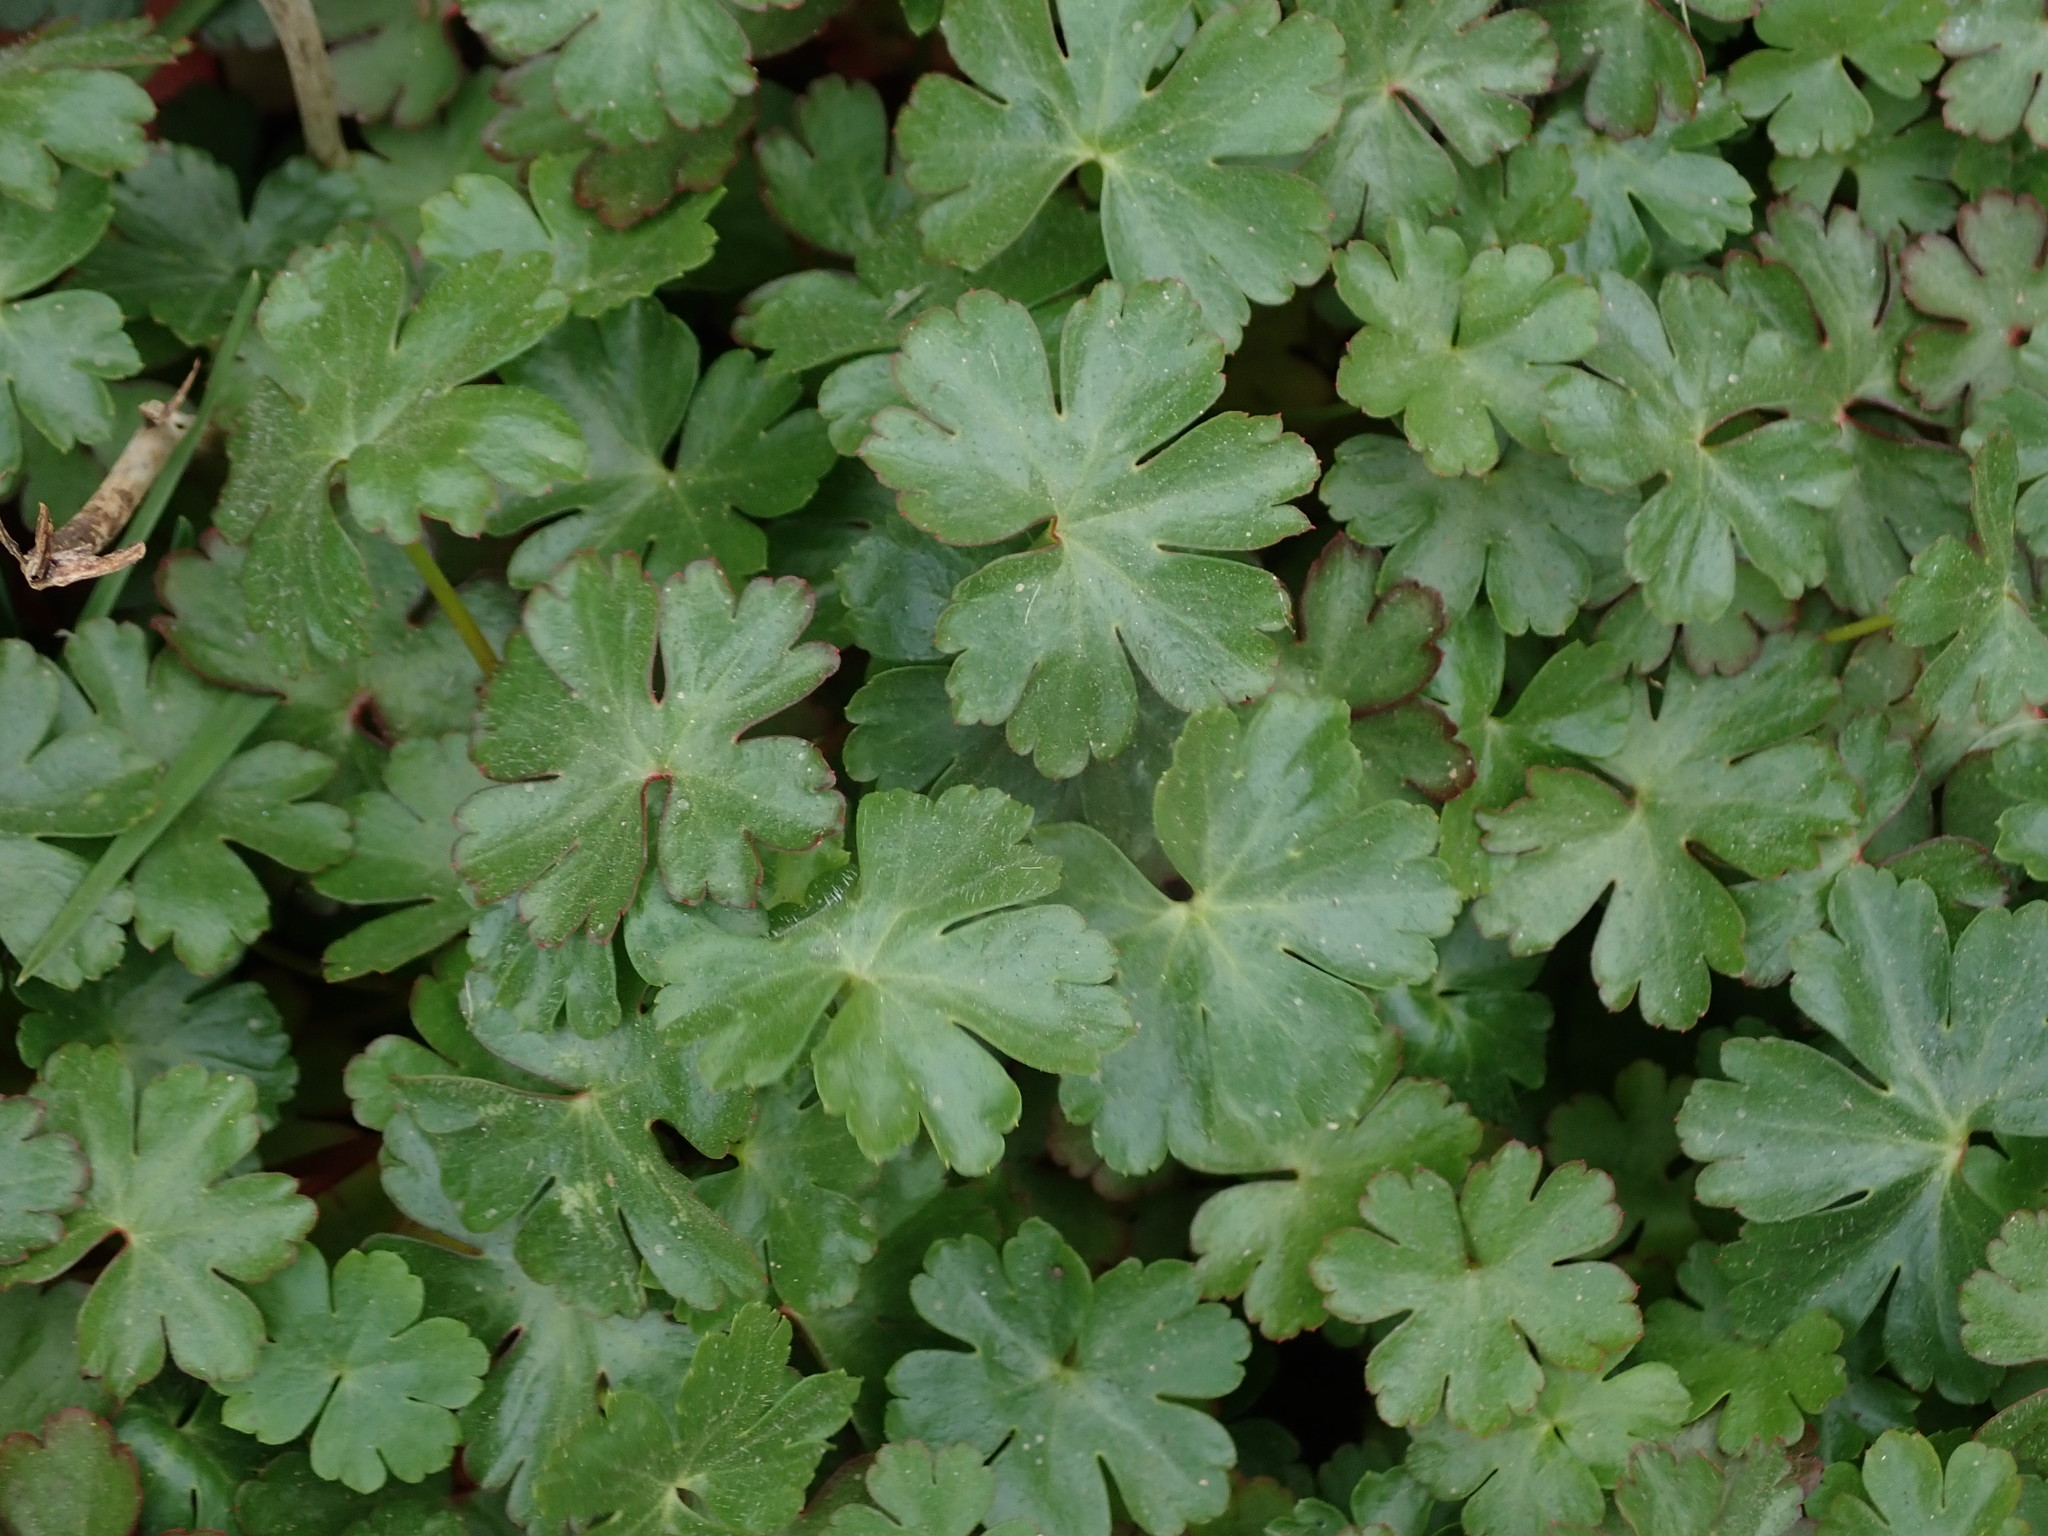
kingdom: Plantae
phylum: Tracheophyta
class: Magnoliopsida
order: Geraniales
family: Geraniaceae
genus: Geranium
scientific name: Geranium lucidum
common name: Shining crane's-bill
